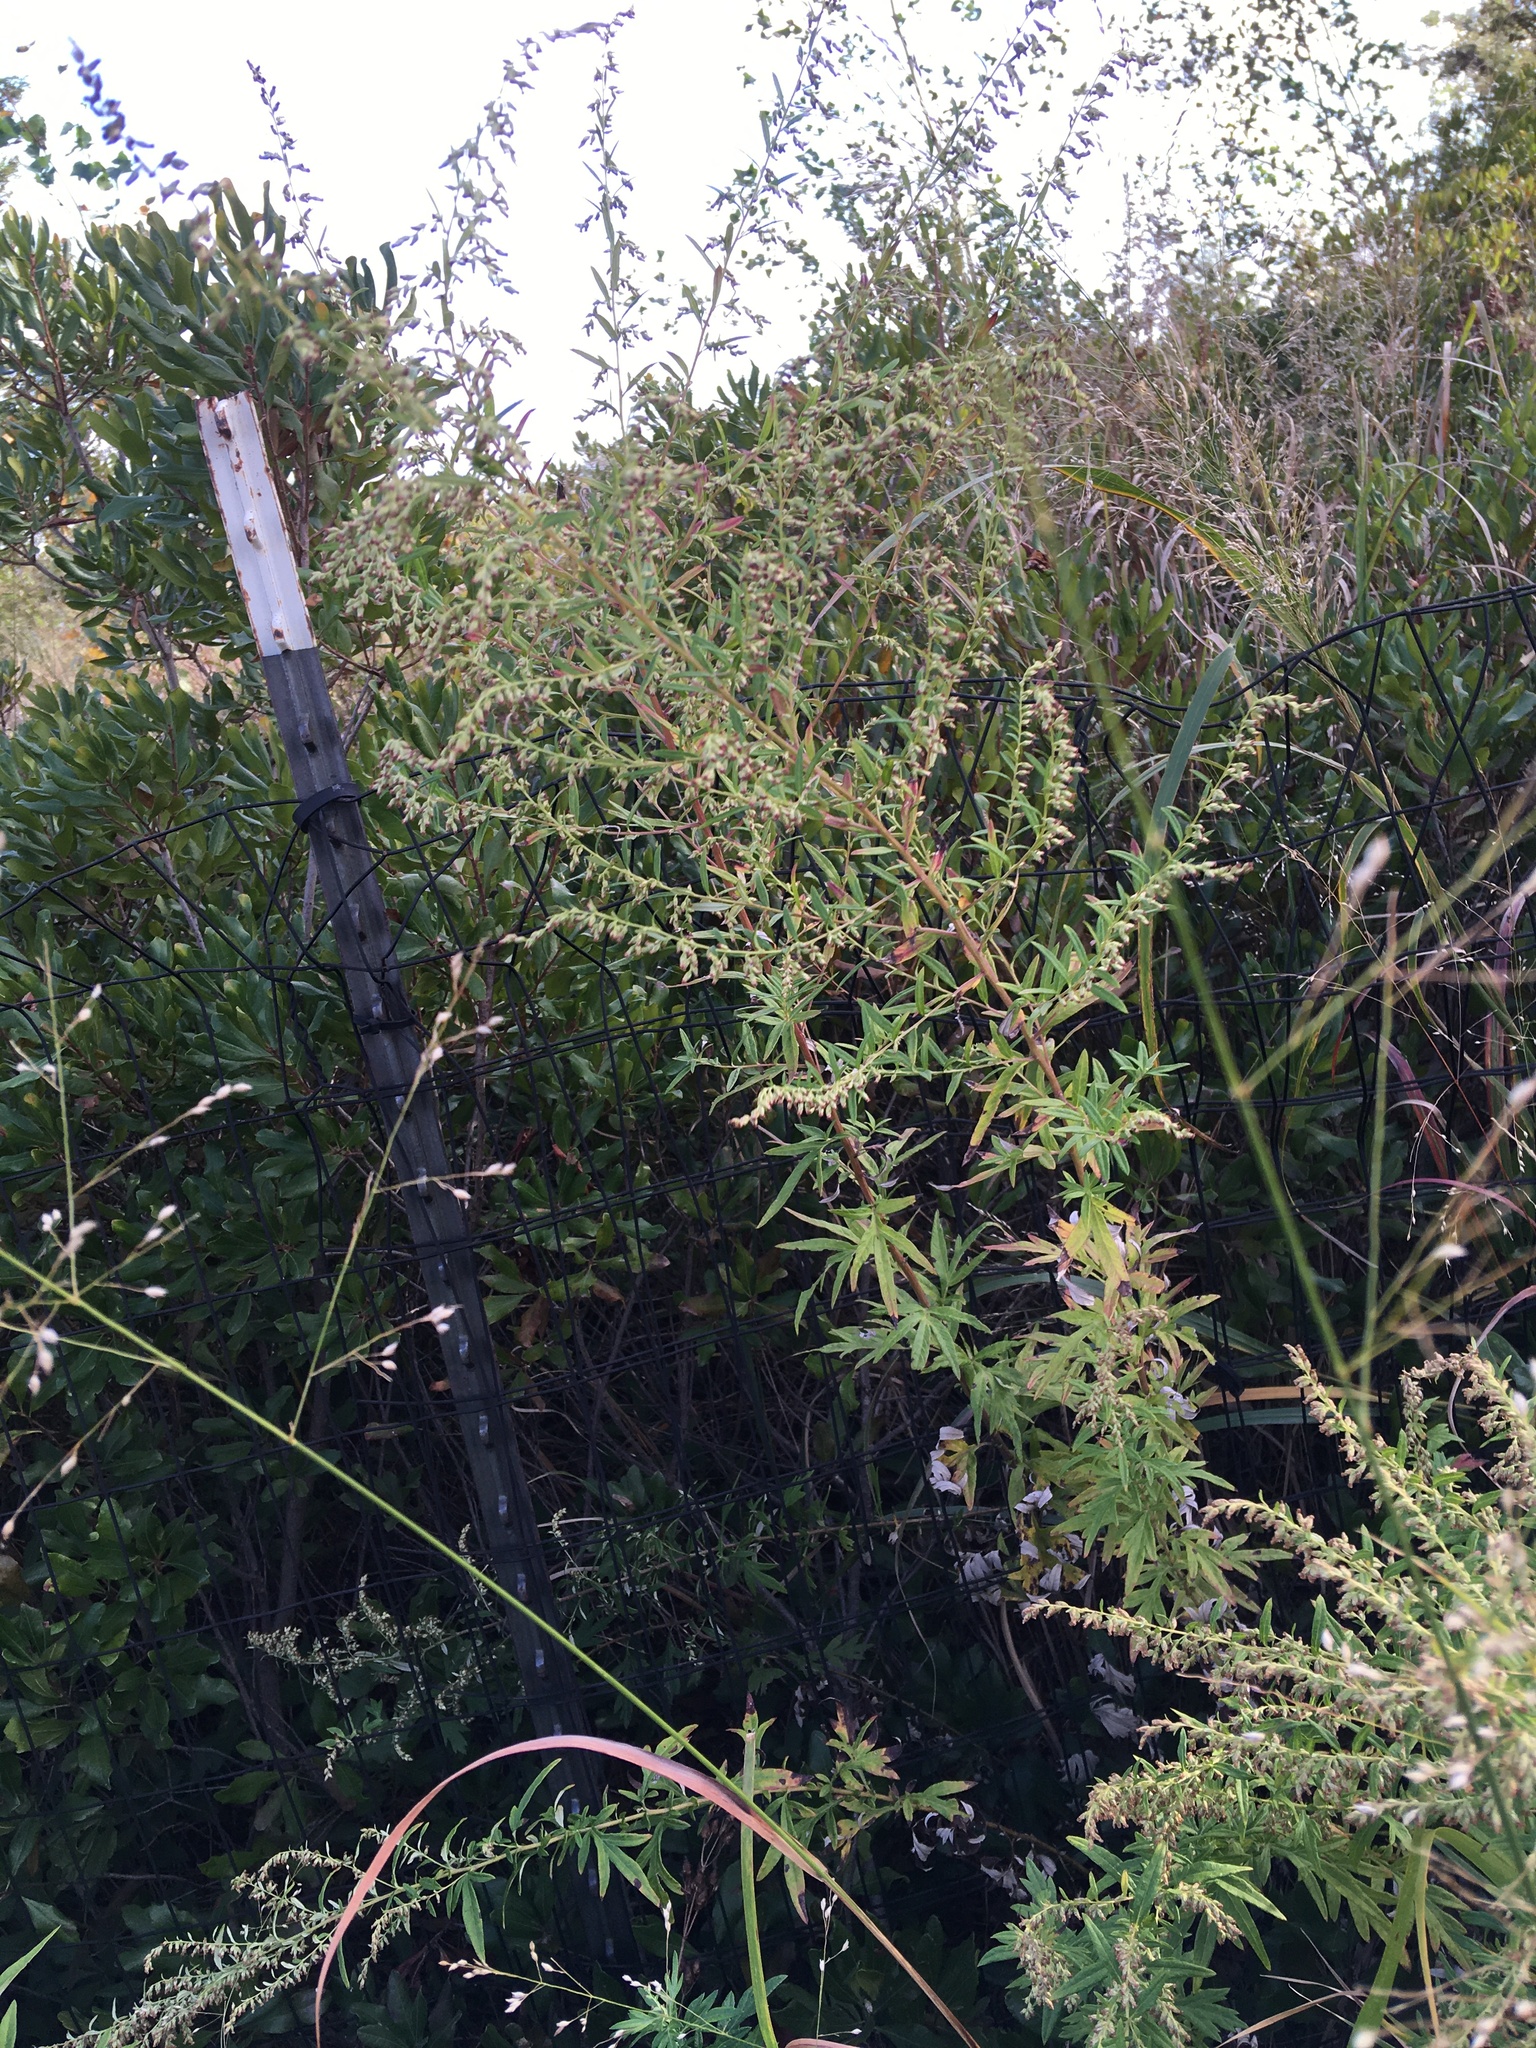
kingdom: Plantae
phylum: Tracheophyta
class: Magnoliopsida
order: Asterales
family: Asteraceae
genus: Artemisia
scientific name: Artemisia vulgaris
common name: Mugwort
